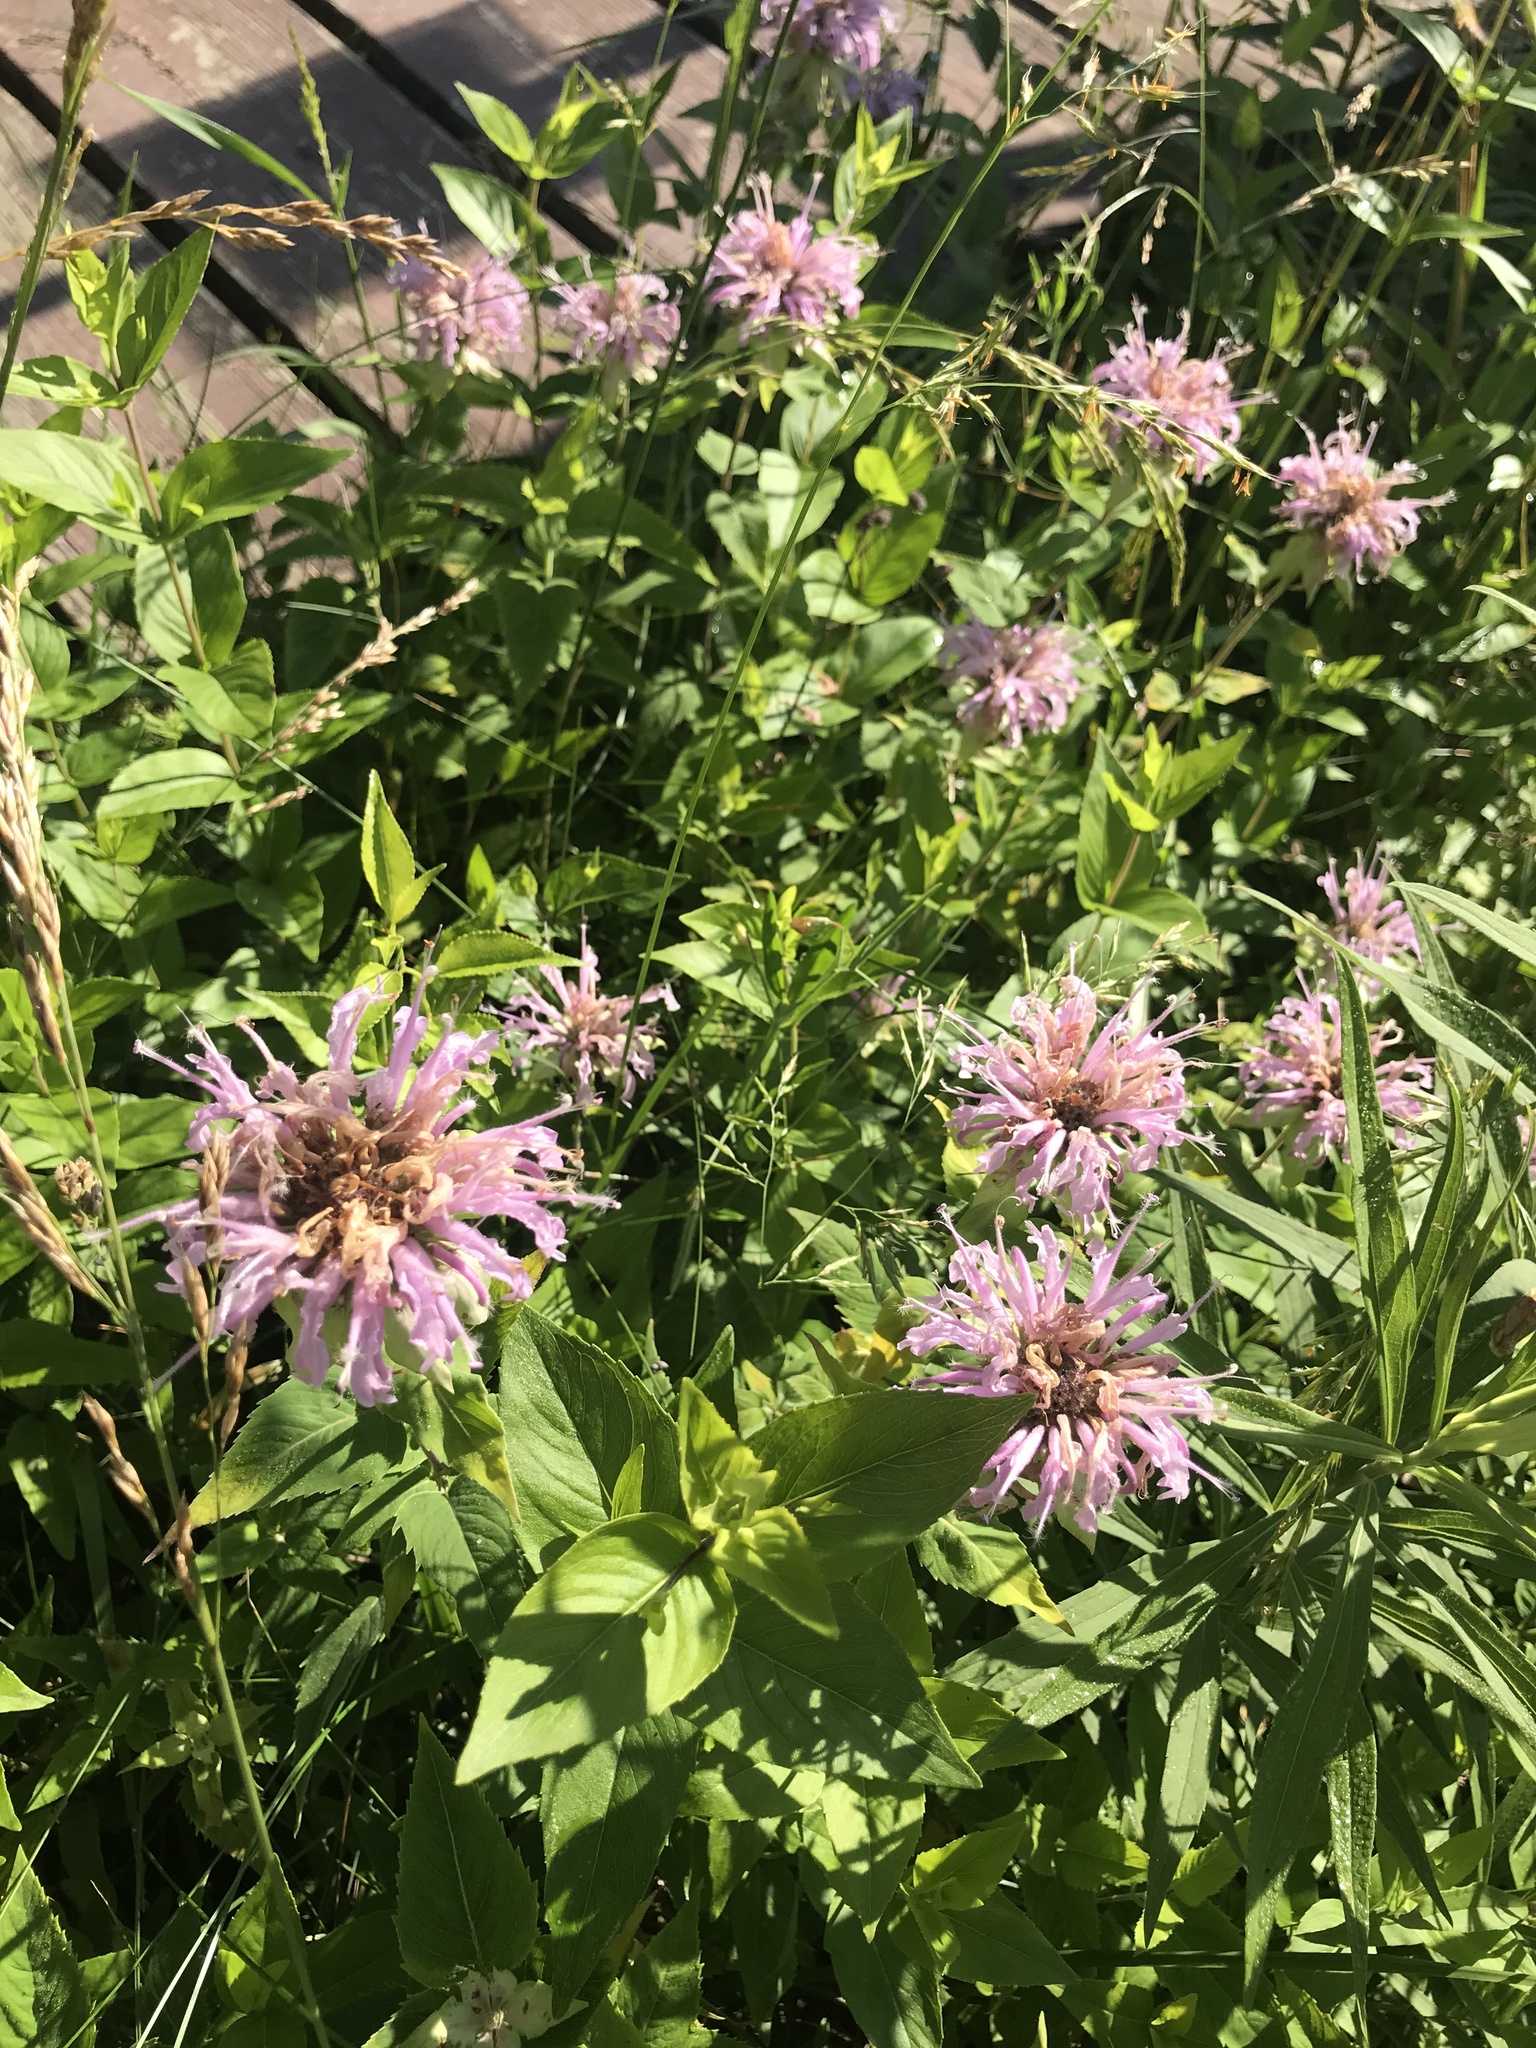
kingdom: Plantae
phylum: Tracheophyta
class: Magnoliopsida
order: Lamiales
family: Lamiaceae
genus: Monarda
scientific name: Monarda fistulosa
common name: Purple beebalm
